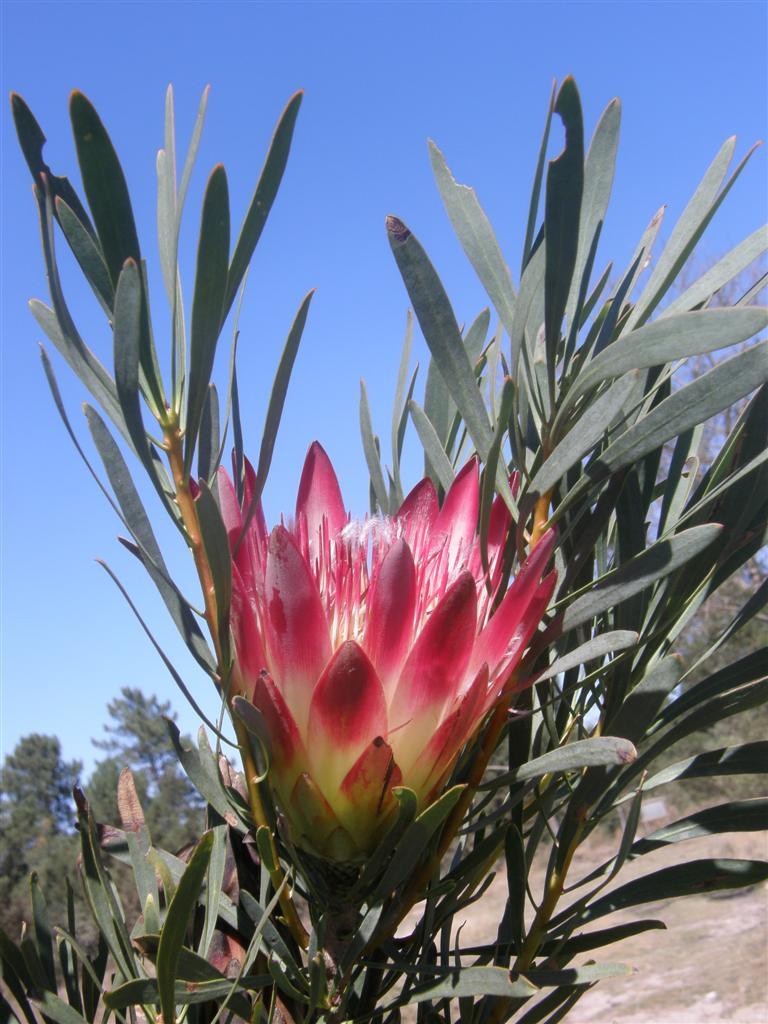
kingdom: Plantae
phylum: Tracheophyta
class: Magnoliopsida
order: Proteales
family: Proteaceae
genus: Protea
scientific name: Protea repens
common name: Sugarbush
